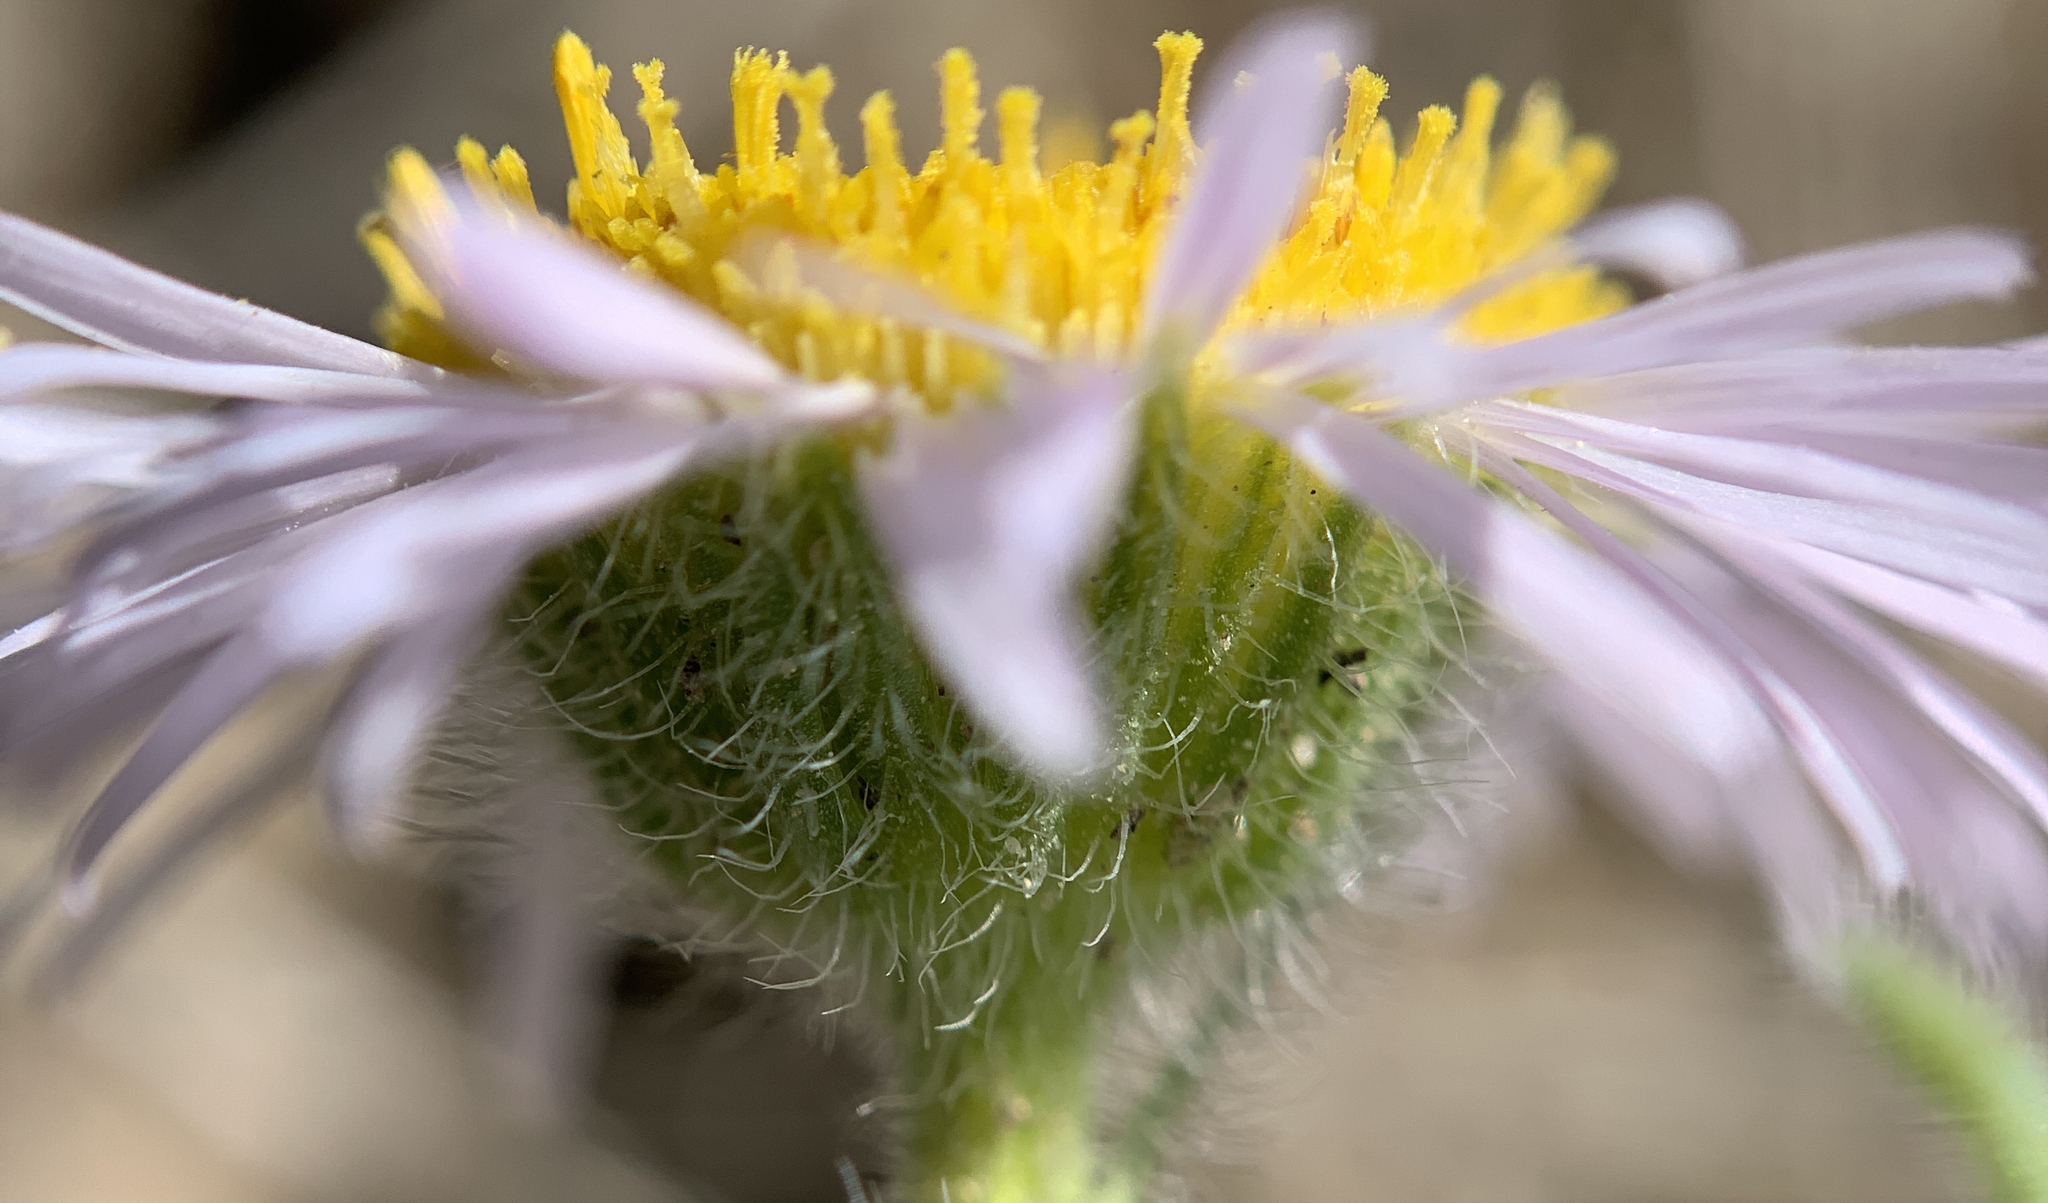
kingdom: Plantae
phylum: Tracheophyta
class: Magnoliopsida
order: Asterales
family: Asteraceae
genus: Erigeron
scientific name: Erigeron pumilus
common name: Shaggy fleabane
